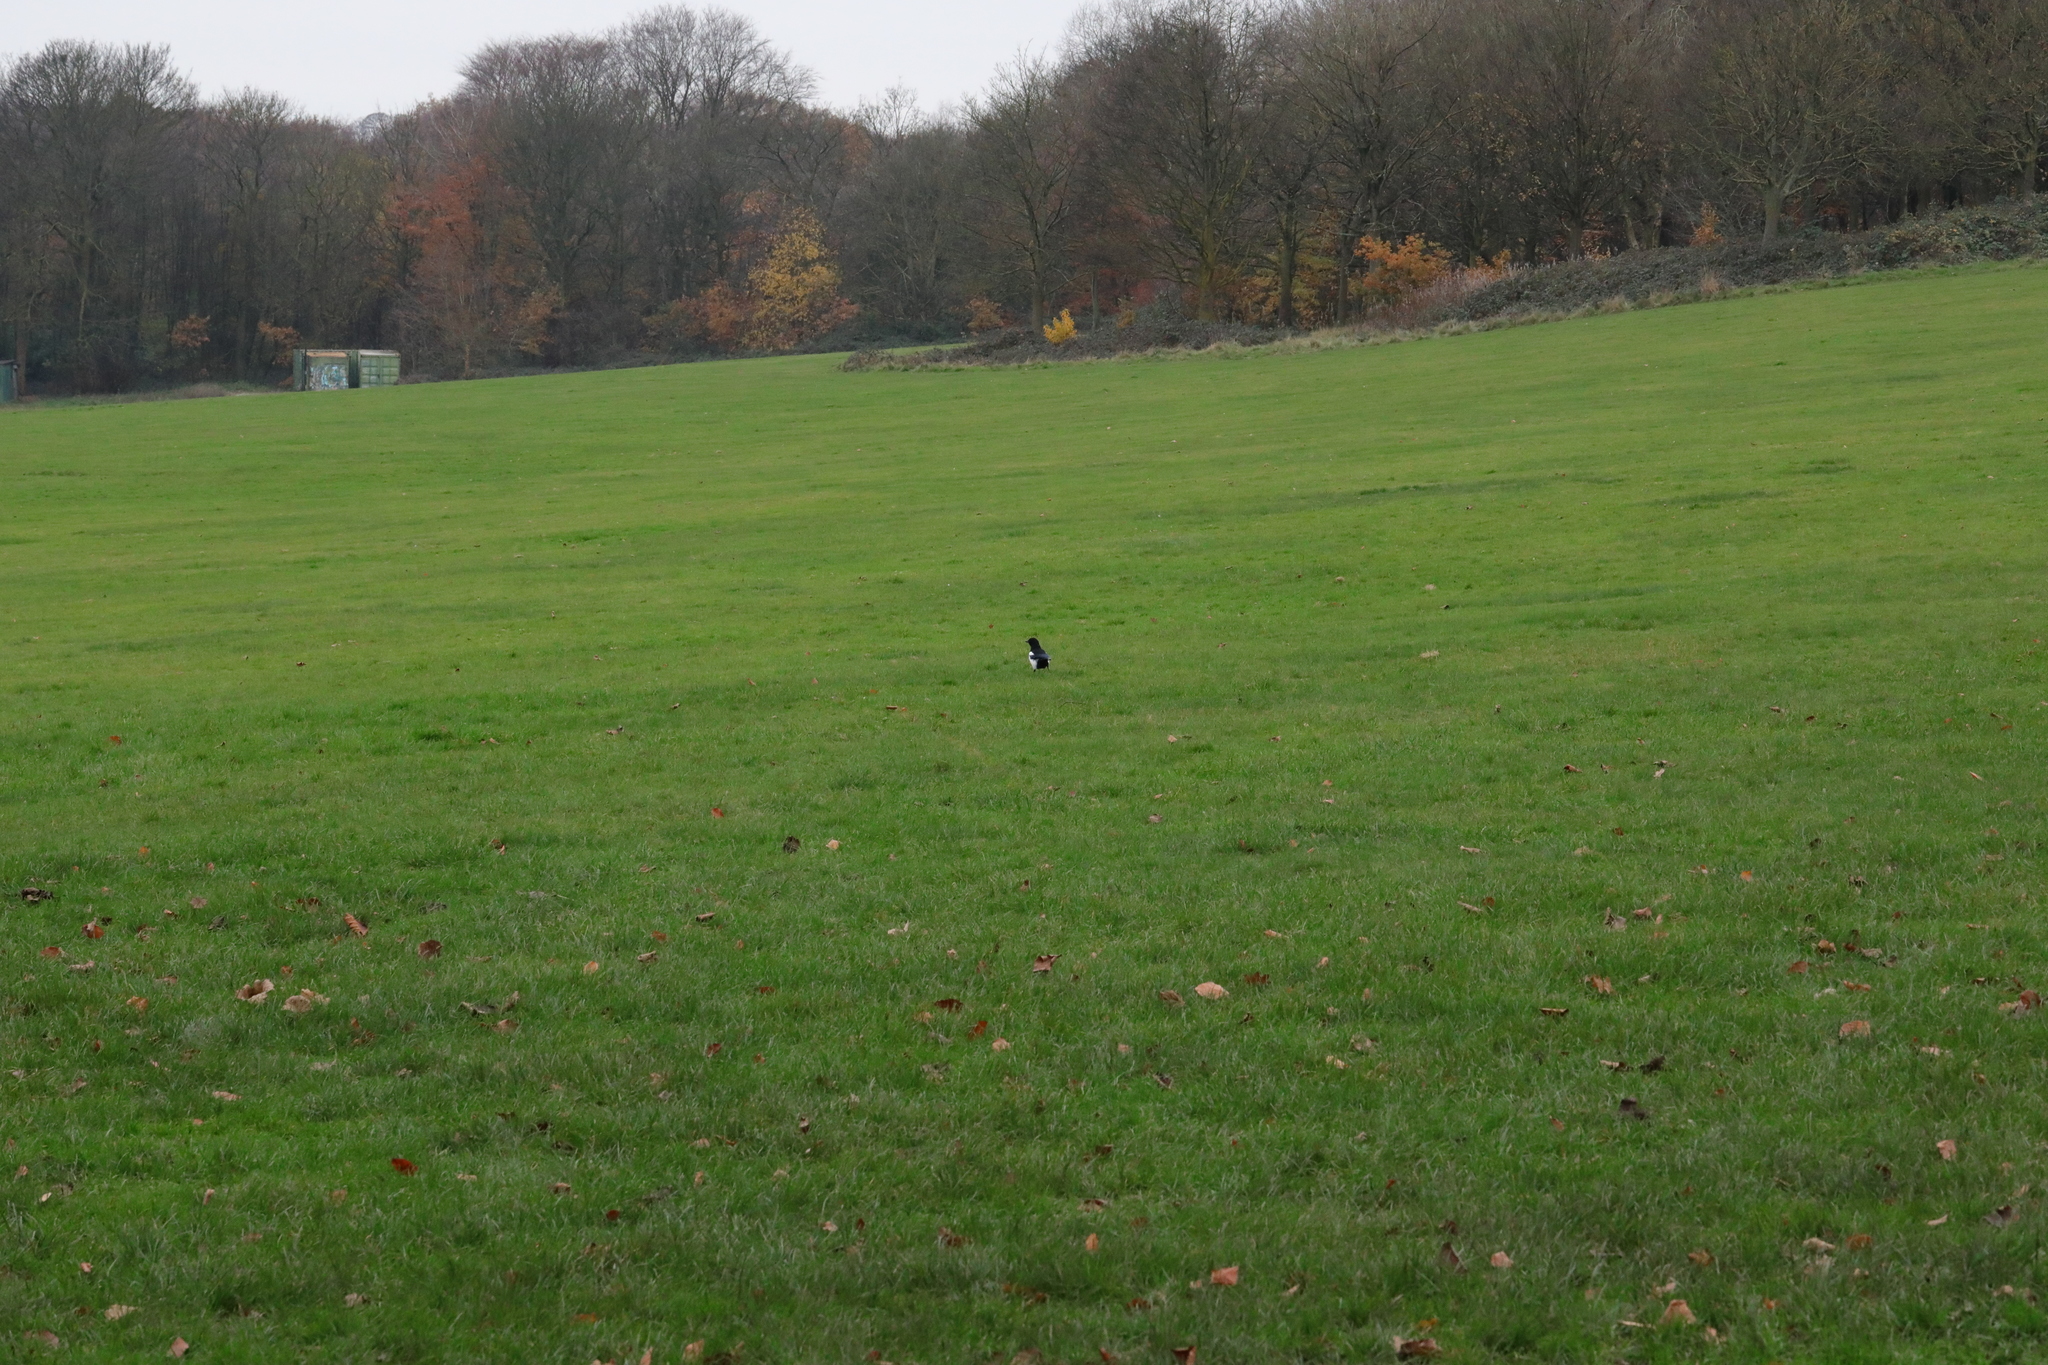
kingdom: Animalia
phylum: Chordata
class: Aves
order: Passeriformes
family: Corvidae
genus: Pica
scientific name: Pica pica
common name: Eurasian magpie
